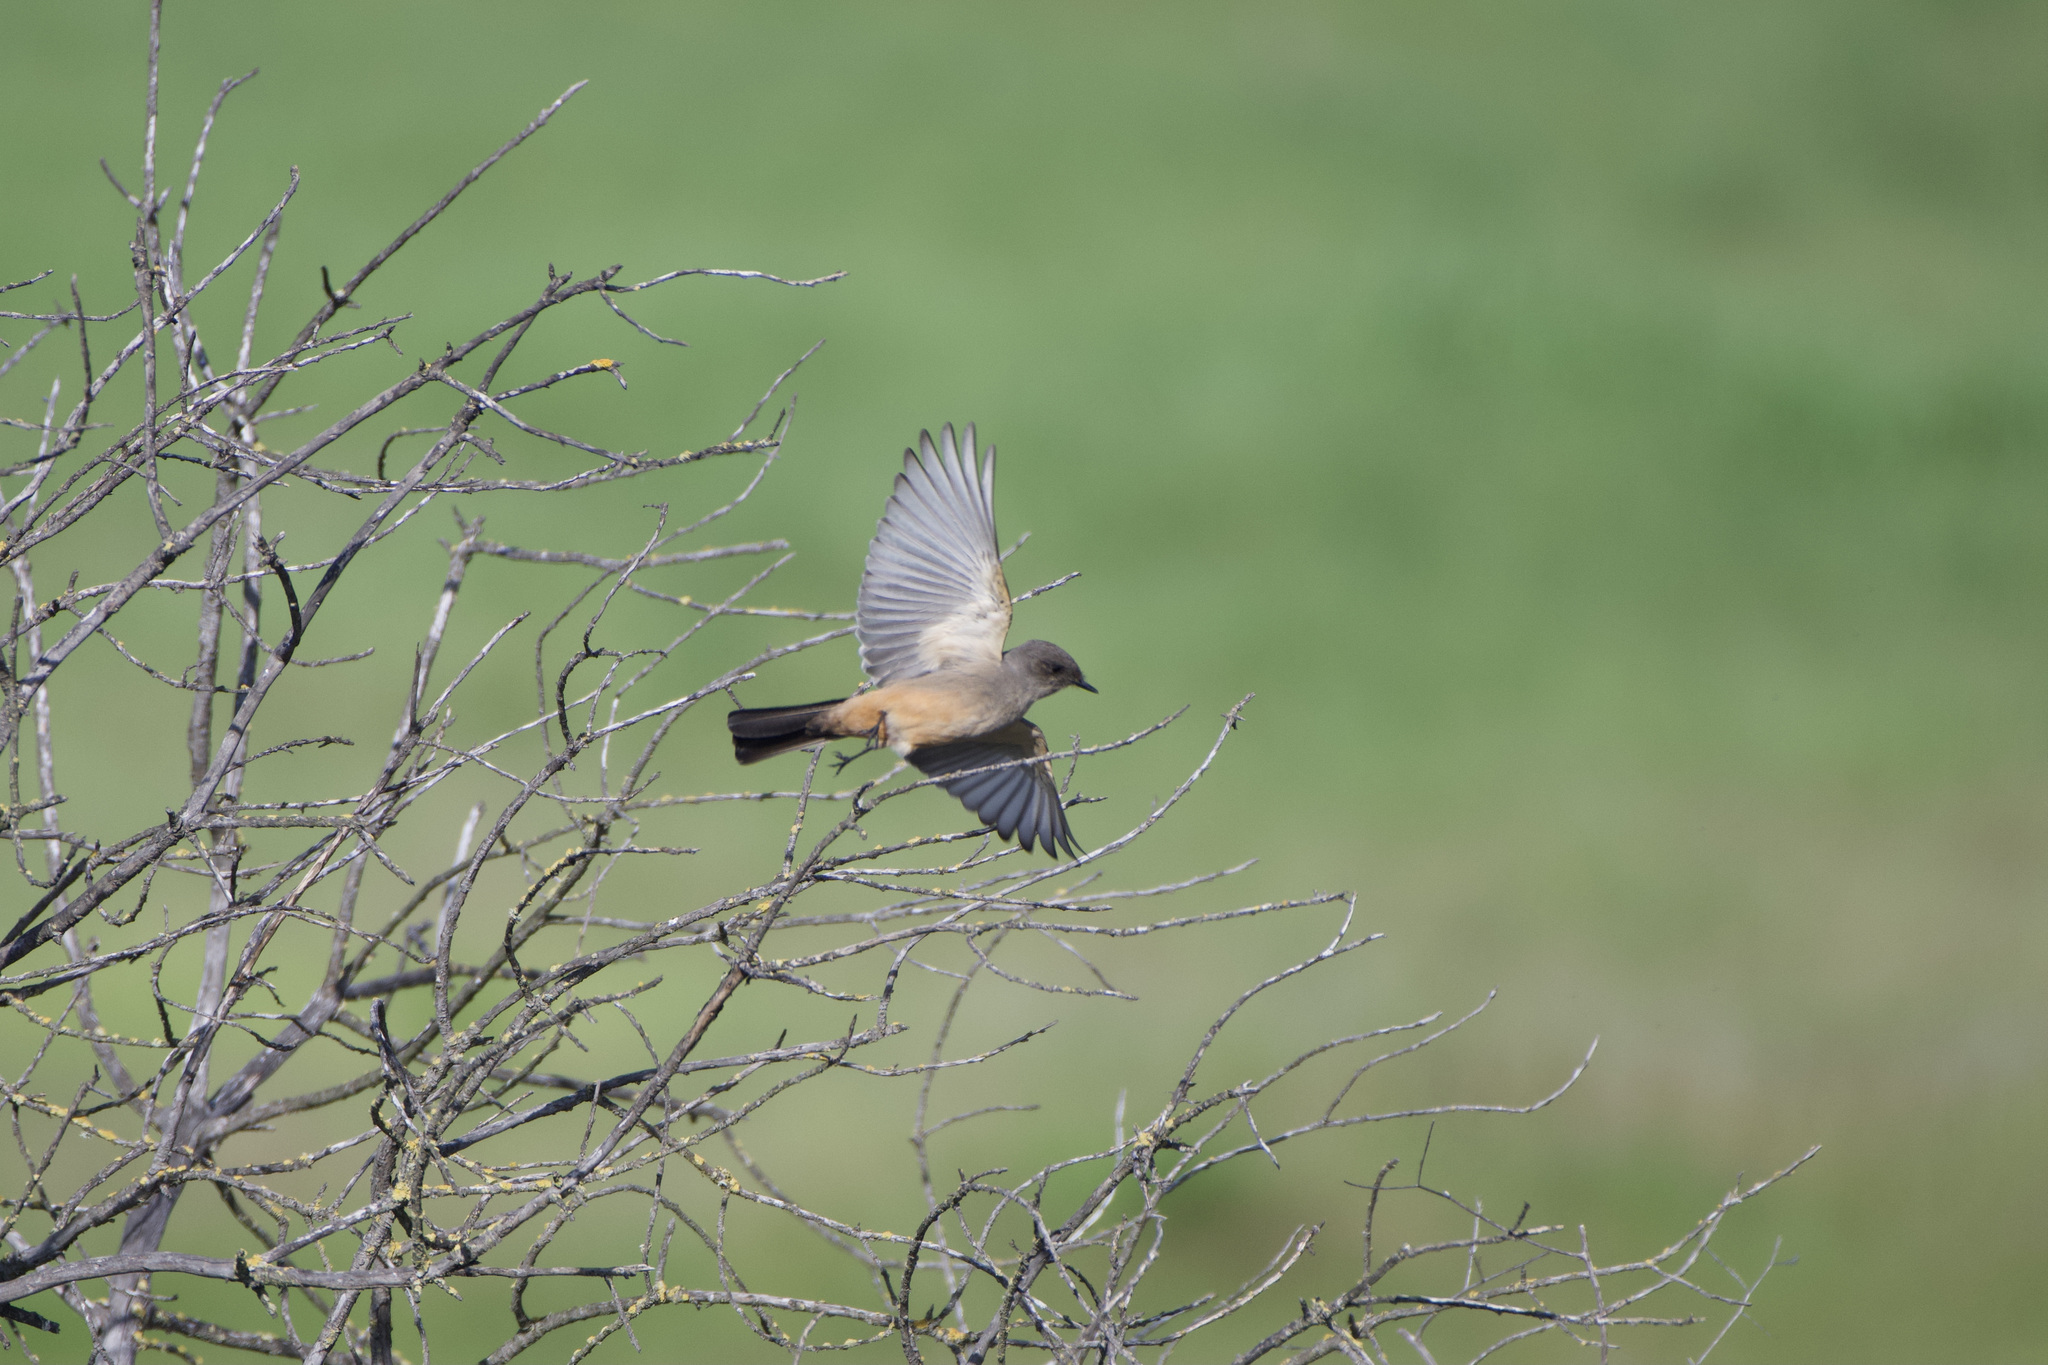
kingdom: Animalia
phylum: Chordata
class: Aves
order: Passeriformes
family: Tyrannidae
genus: Sayornis
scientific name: Sayornis saya
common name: Say's phoebe
